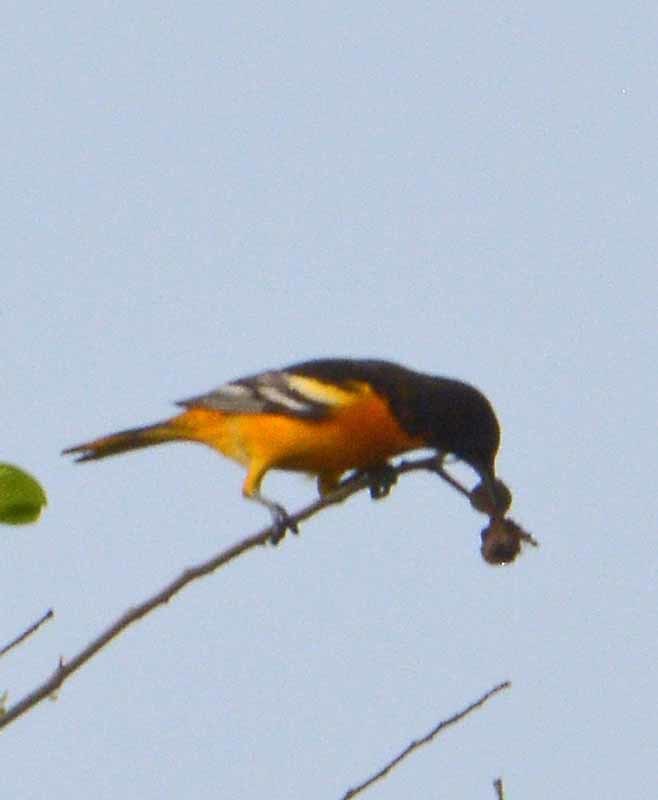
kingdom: Animalia
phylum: Chordata
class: Aves
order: Passeriformes
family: Icteridae
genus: Icterus
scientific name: Icterus galbula
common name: Baltimore oriole
